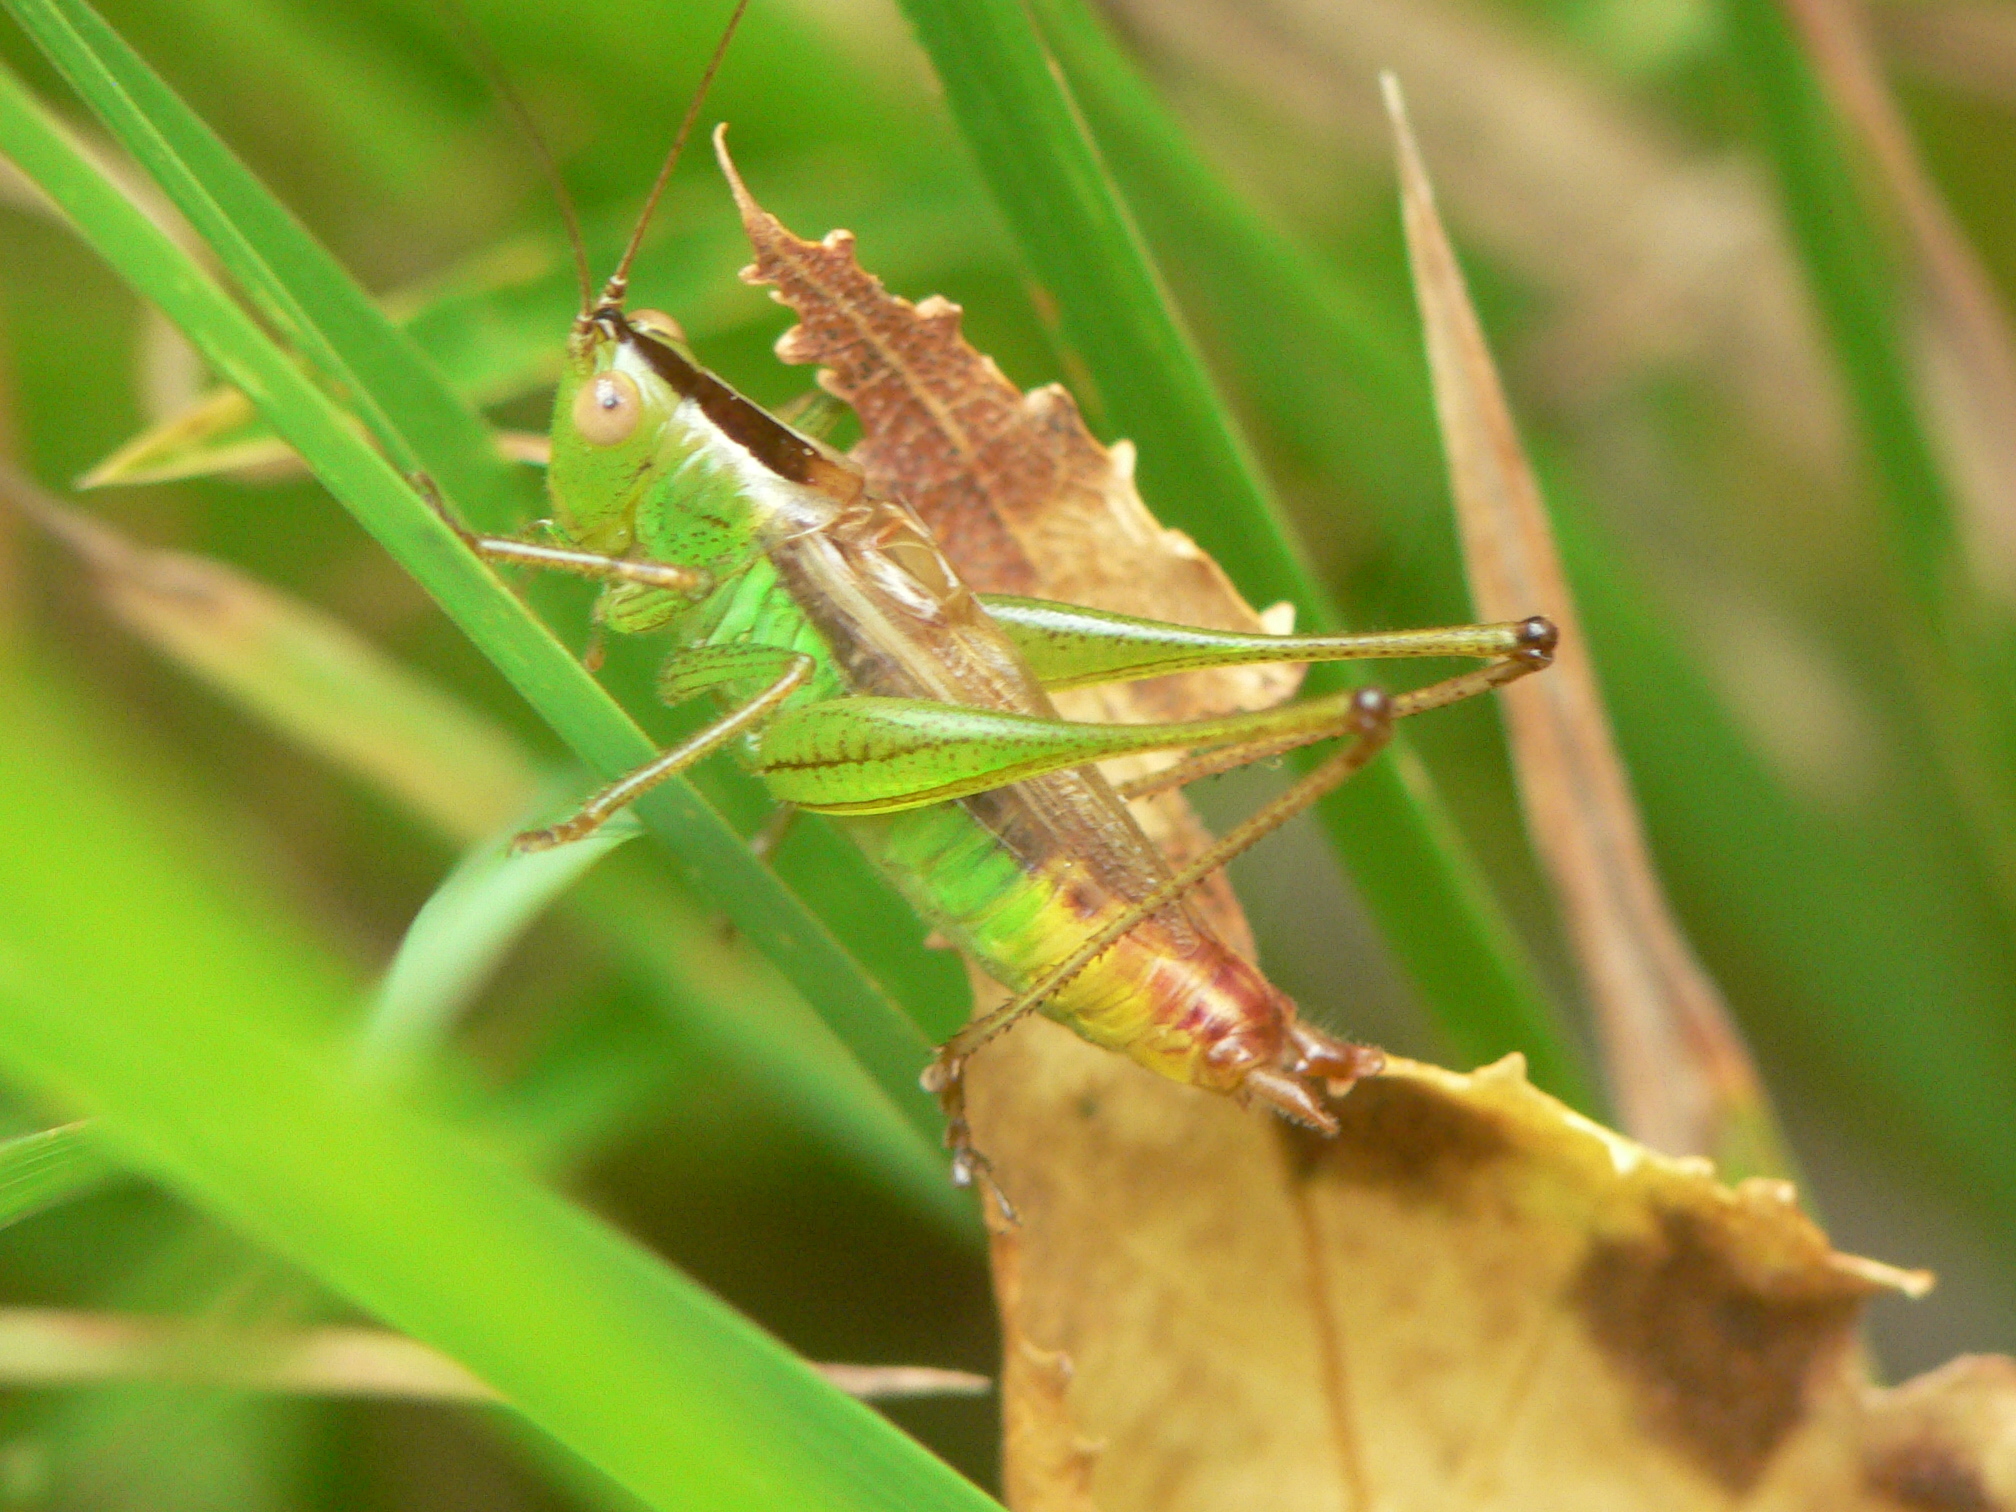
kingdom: Animalia
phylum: Arthropoda
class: Insecta
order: Orthoptera
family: Tettigoniidae
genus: Conocephalus
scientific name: Conocephalus brevipennis
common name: Short-winged meadow katydid
